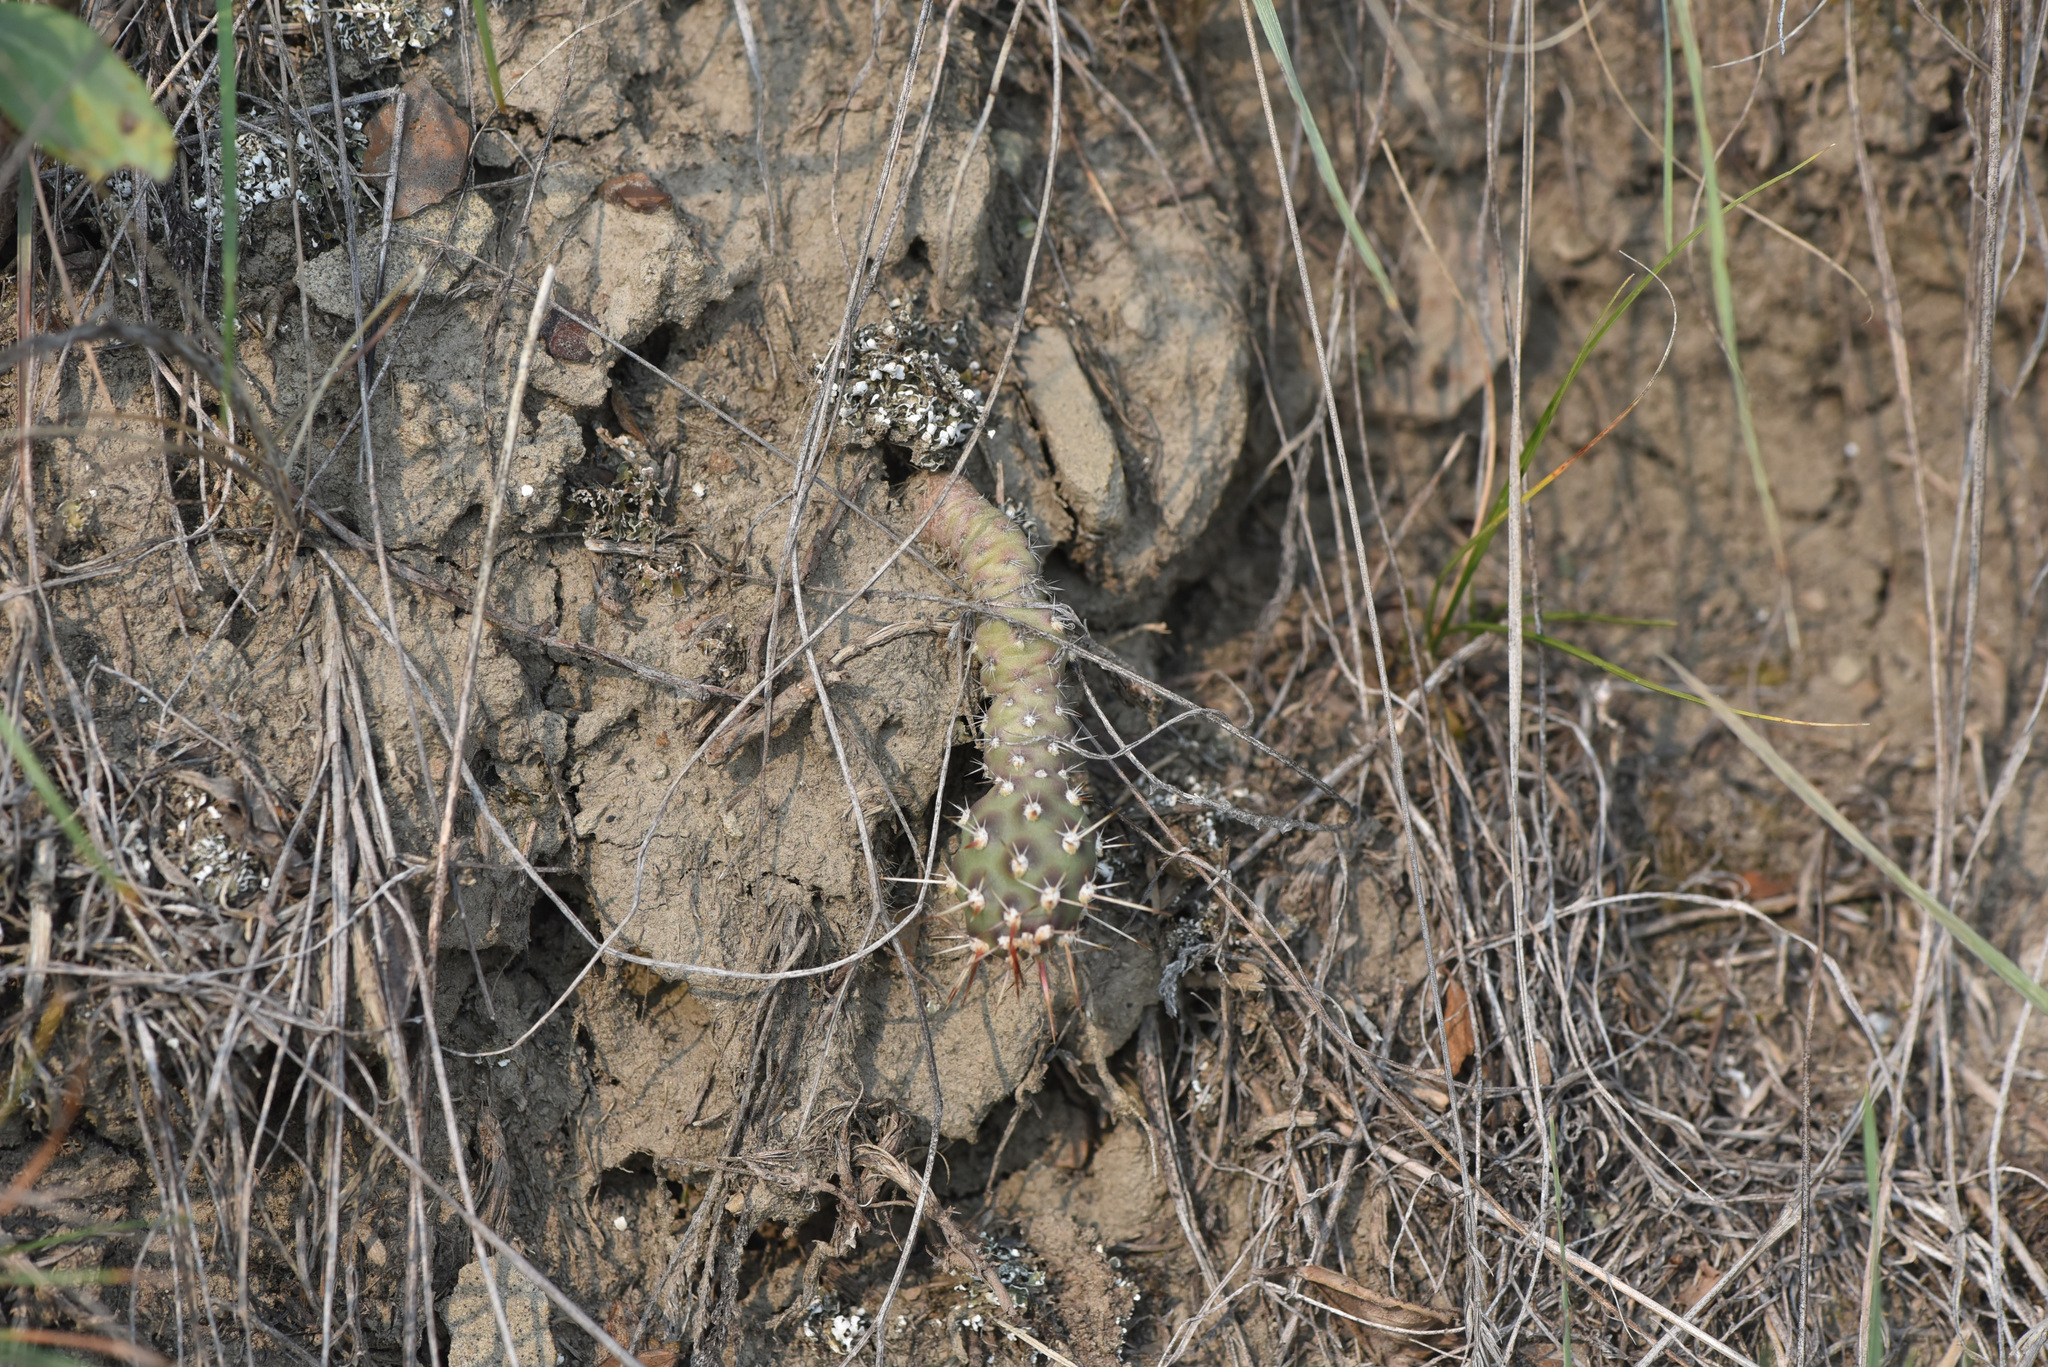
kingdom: Plantae
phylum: Tracheophyta
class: Magnoliopsida
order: Caryophyllales
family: Cactaceae
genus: Opuntia
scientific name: Opuntia fragilis
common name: Brittle cactus
